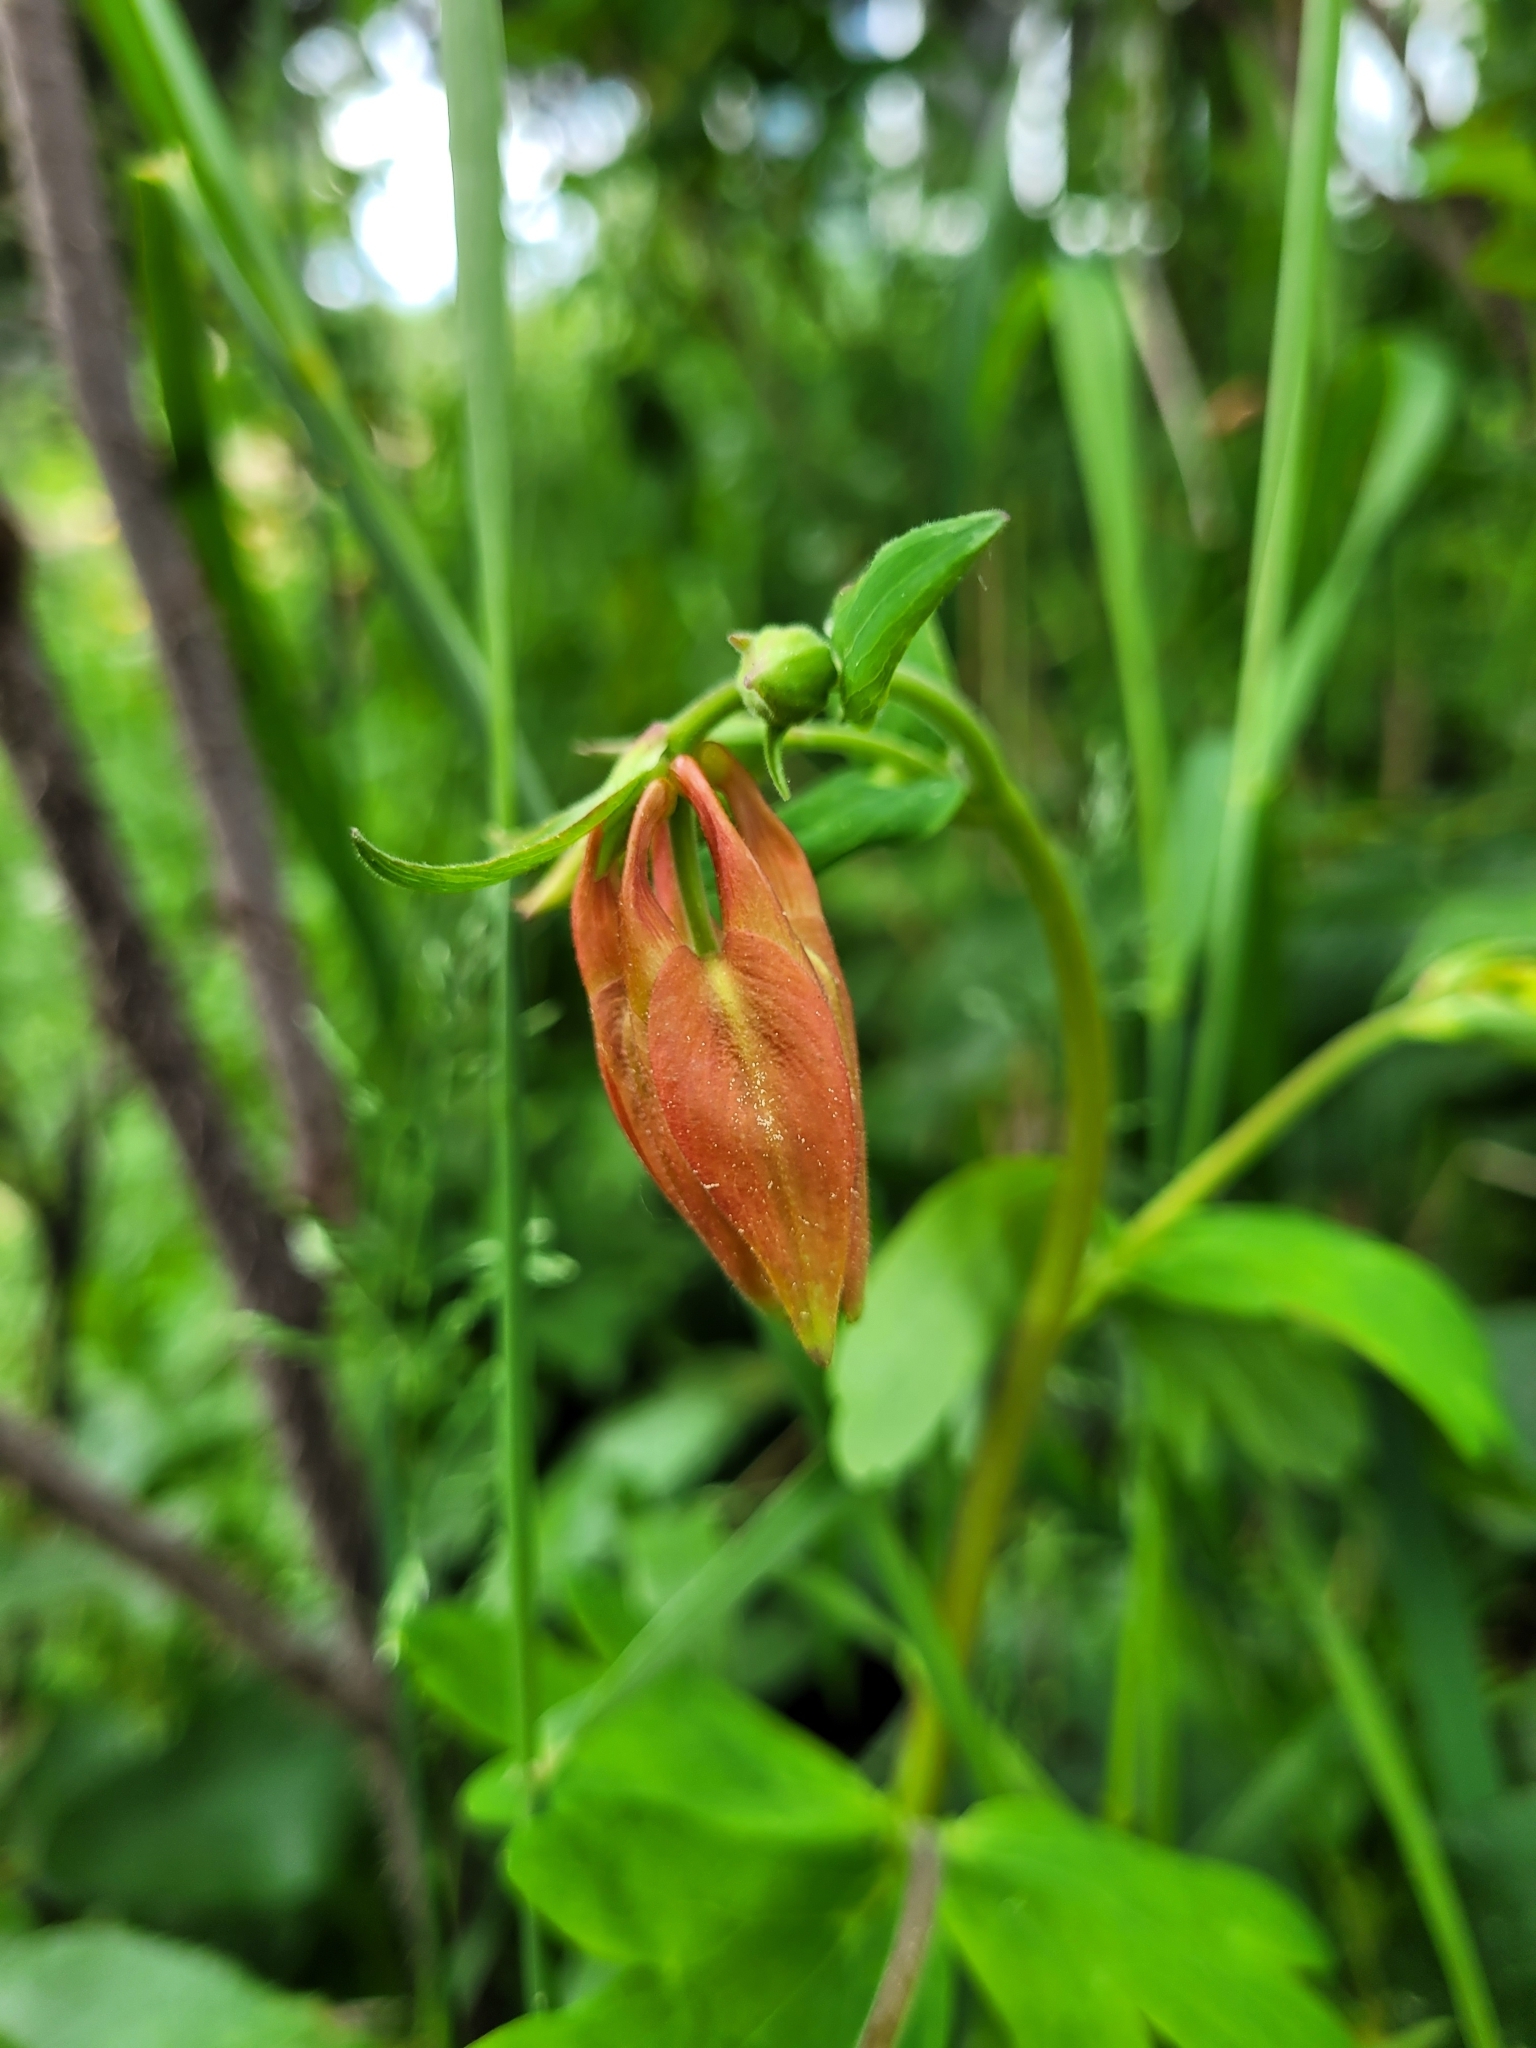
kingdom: Plantae
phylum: Tracheophyta
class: Magnoliopsida
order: Ranunculales
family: Ranunculaceae
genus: Aquilegia
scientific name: Aquilegia formosa
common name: Sitka columbine
